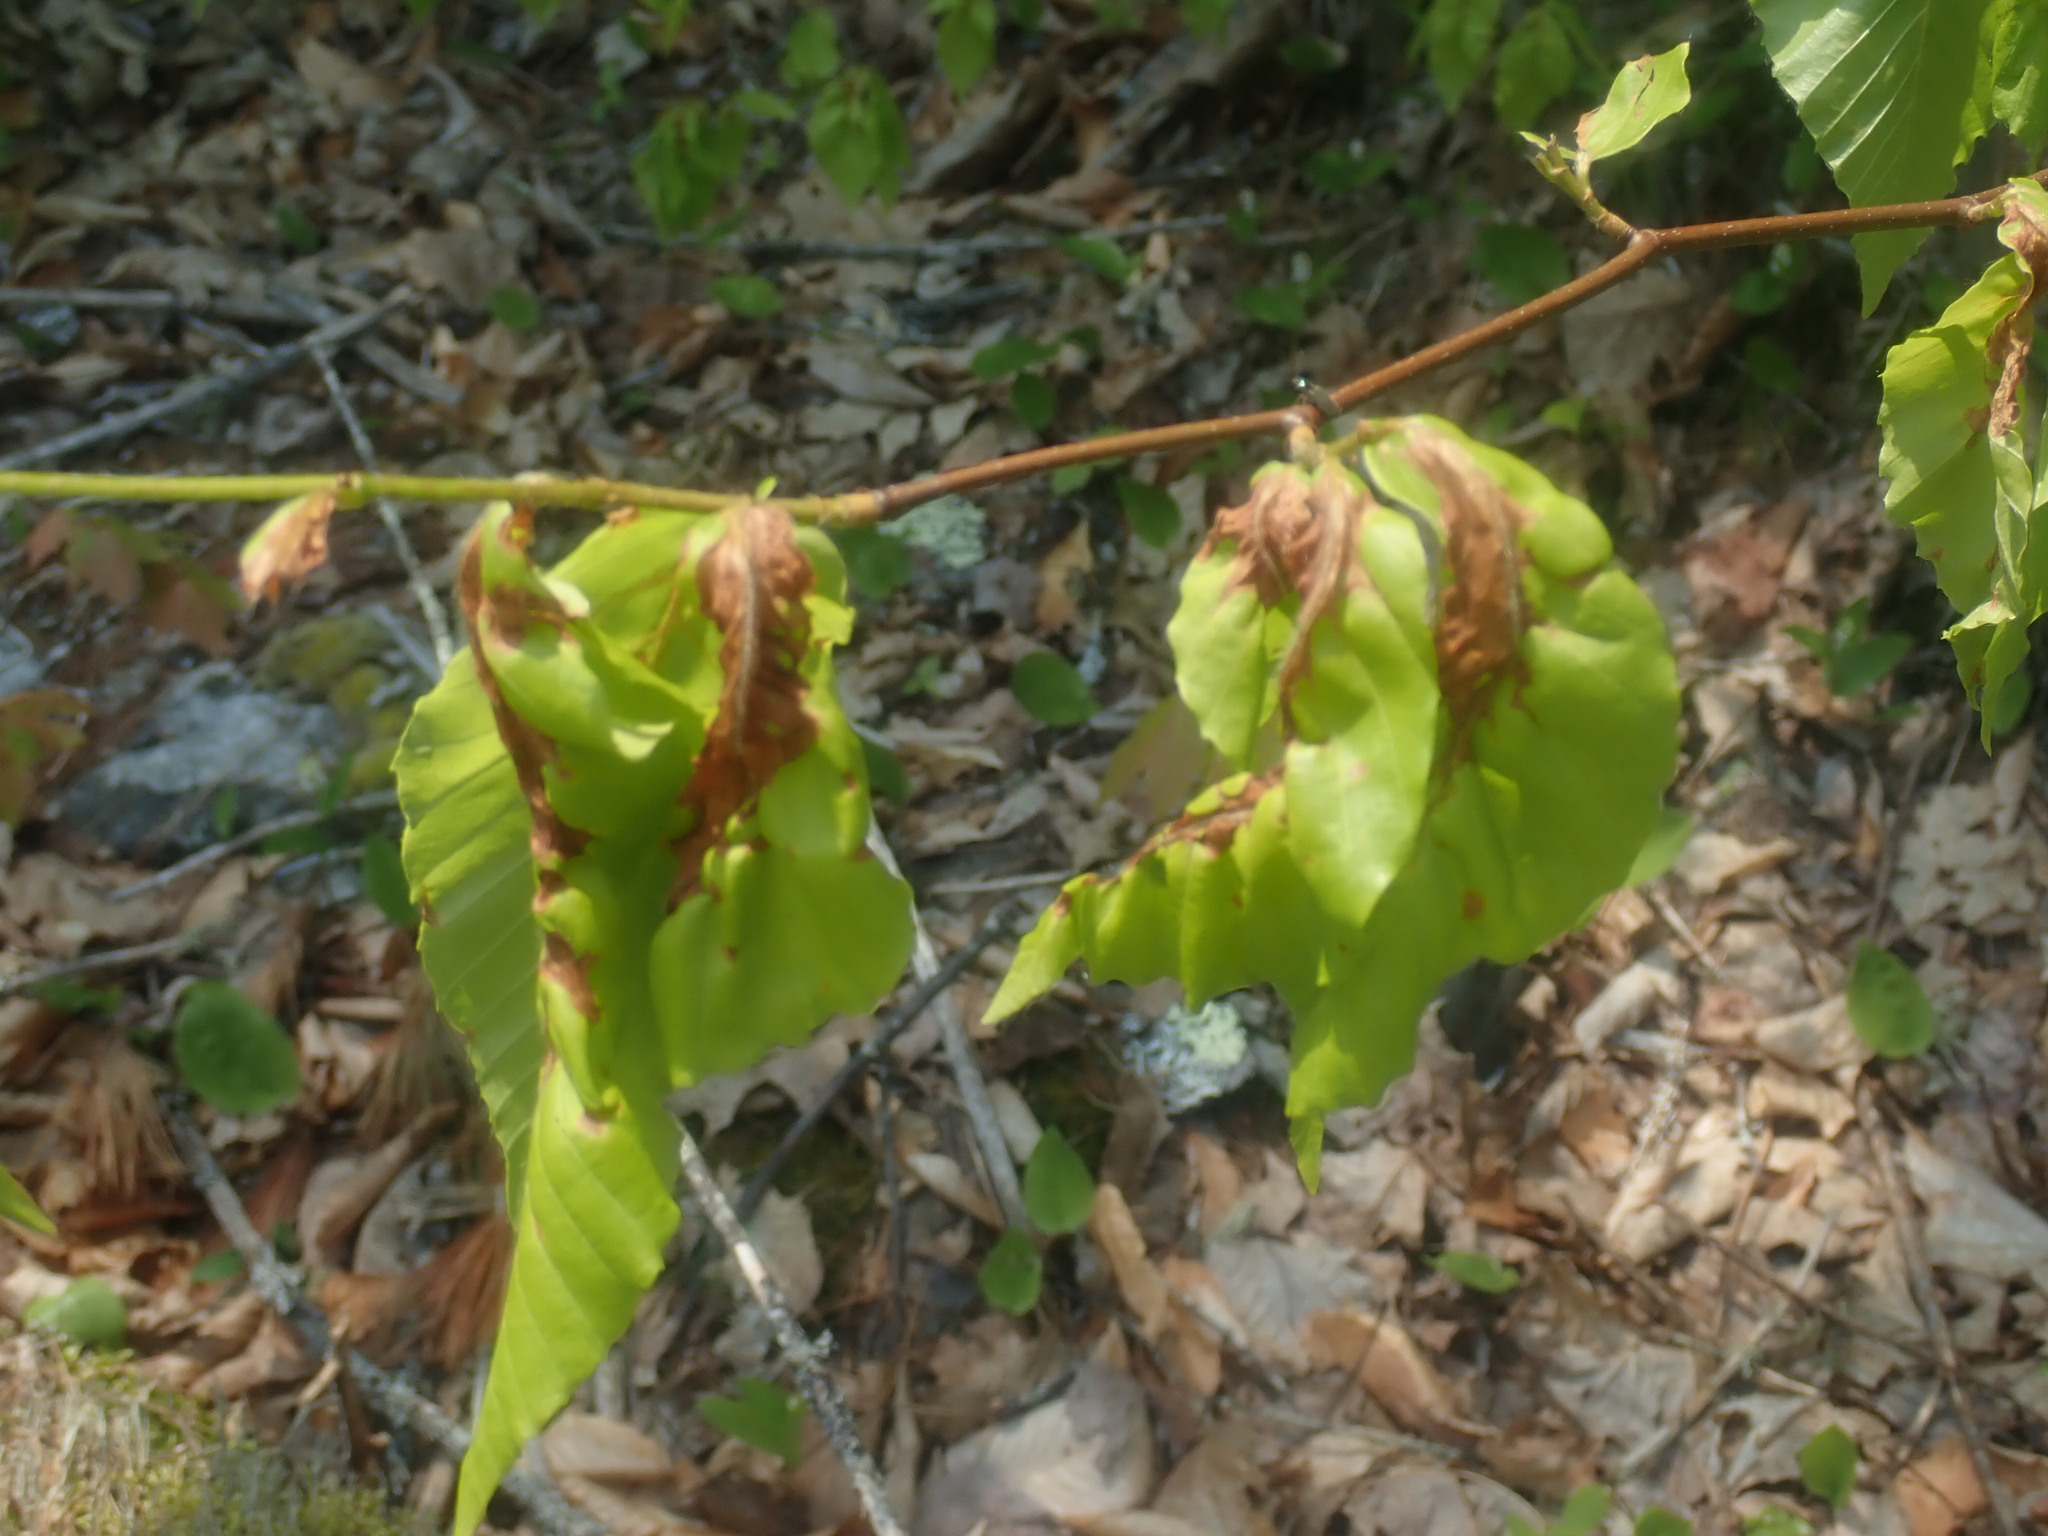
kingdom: Plantae
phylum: Tracheophyta
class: Magnoliopsida
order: Fagales
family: Fagaceae
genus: Fagus
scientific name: Fagus grandifolia
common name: American beech
